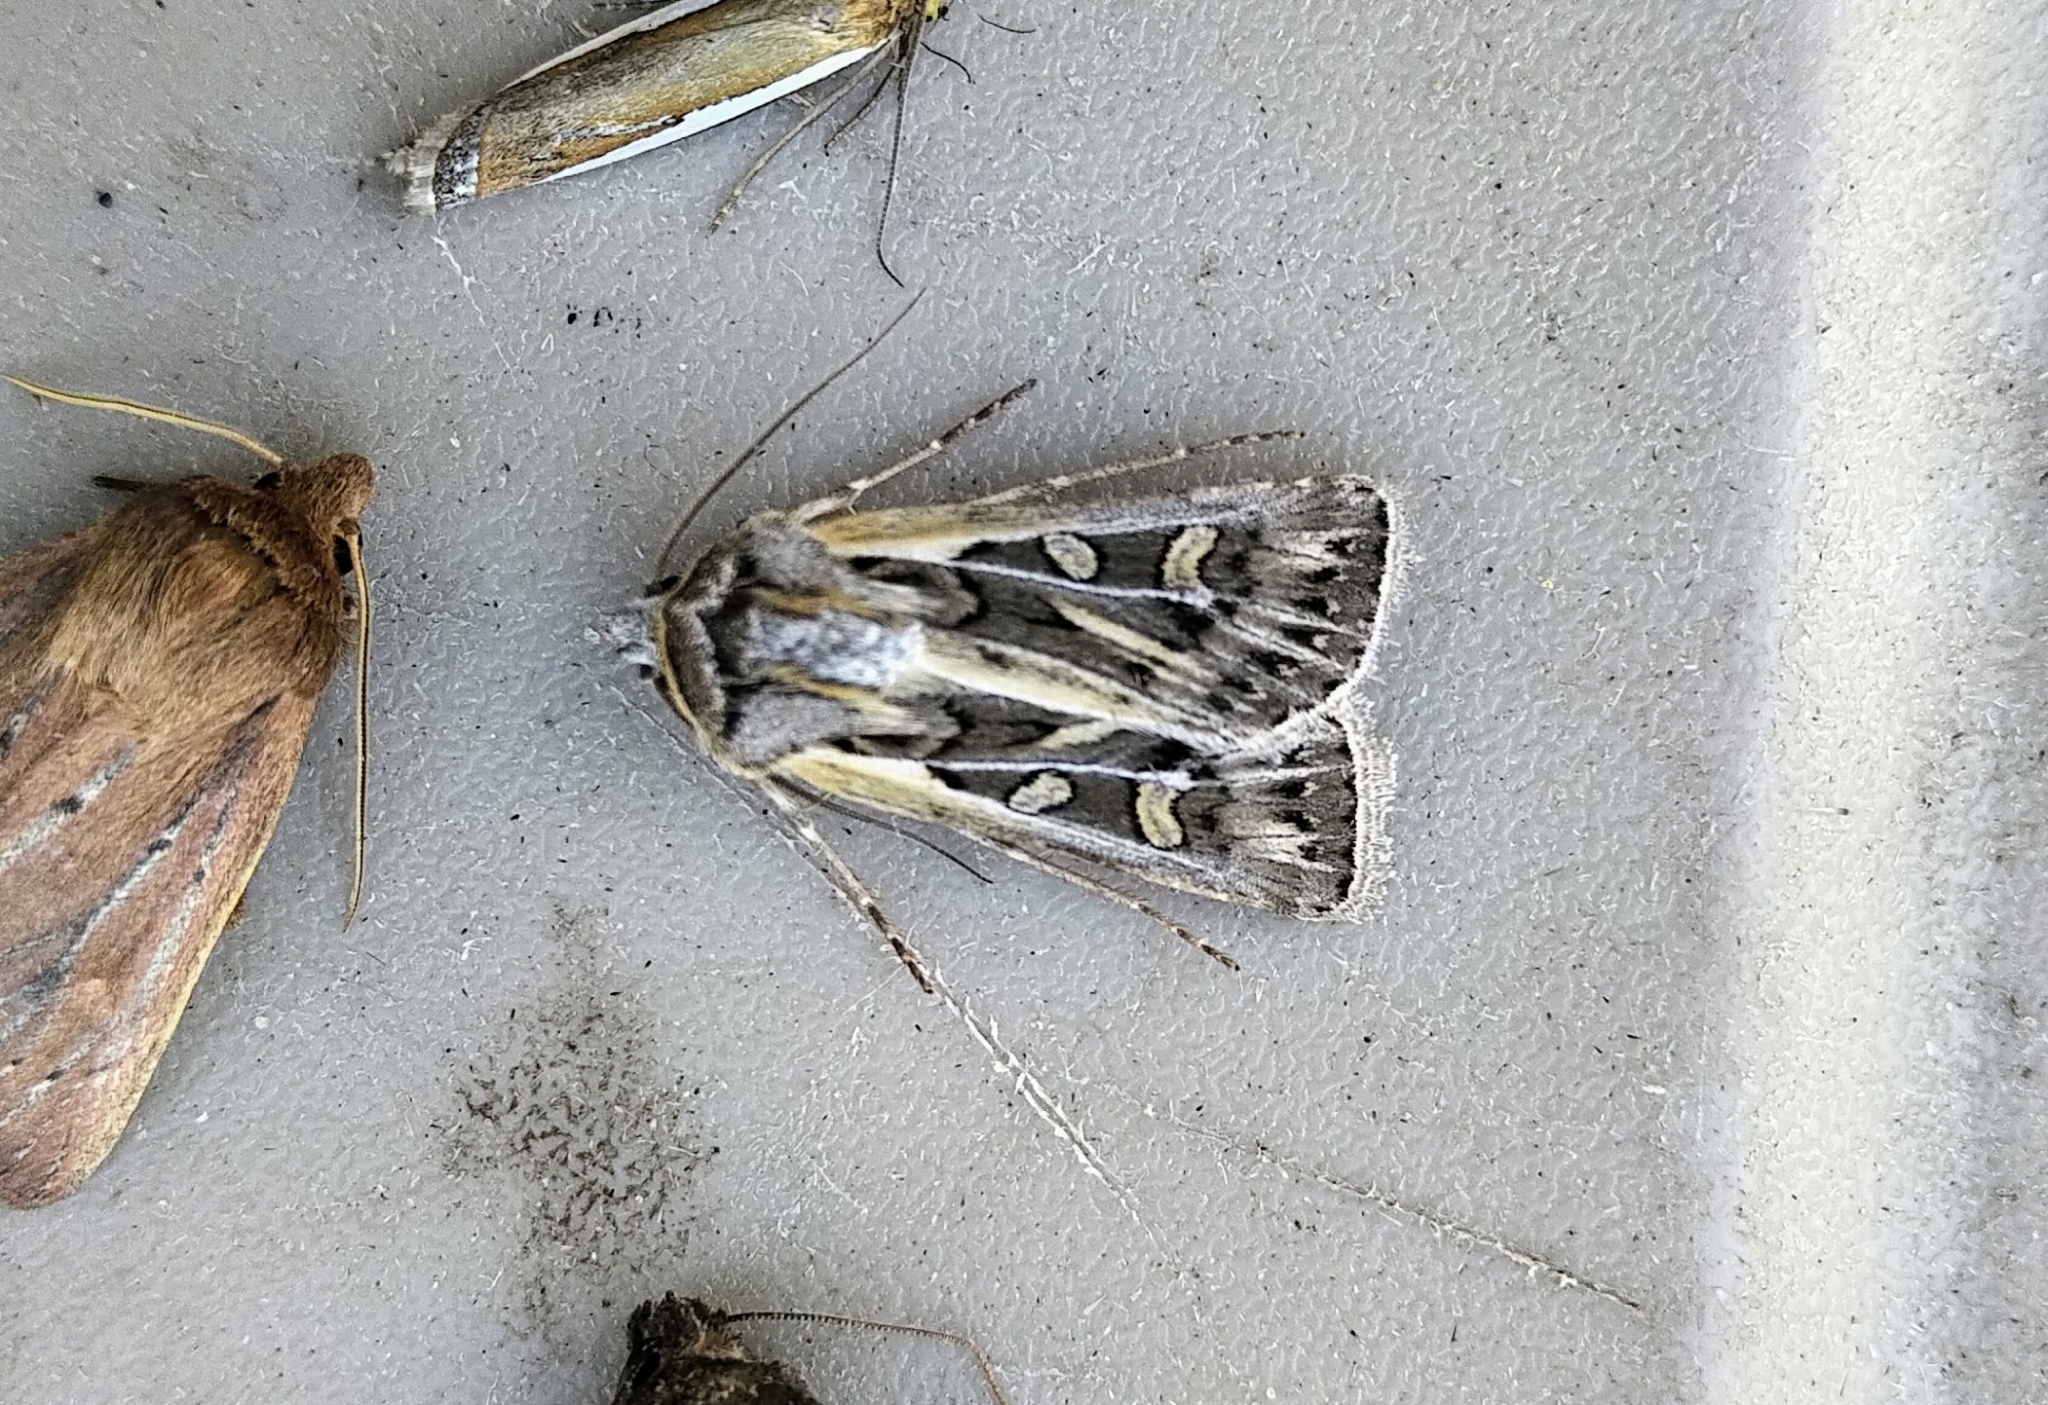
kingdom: Animalia
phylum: Arthropoda
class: Insecta
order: Lepidoptera
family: Noctuidae
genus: Euxoa
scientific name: Euxoa quadridentata
